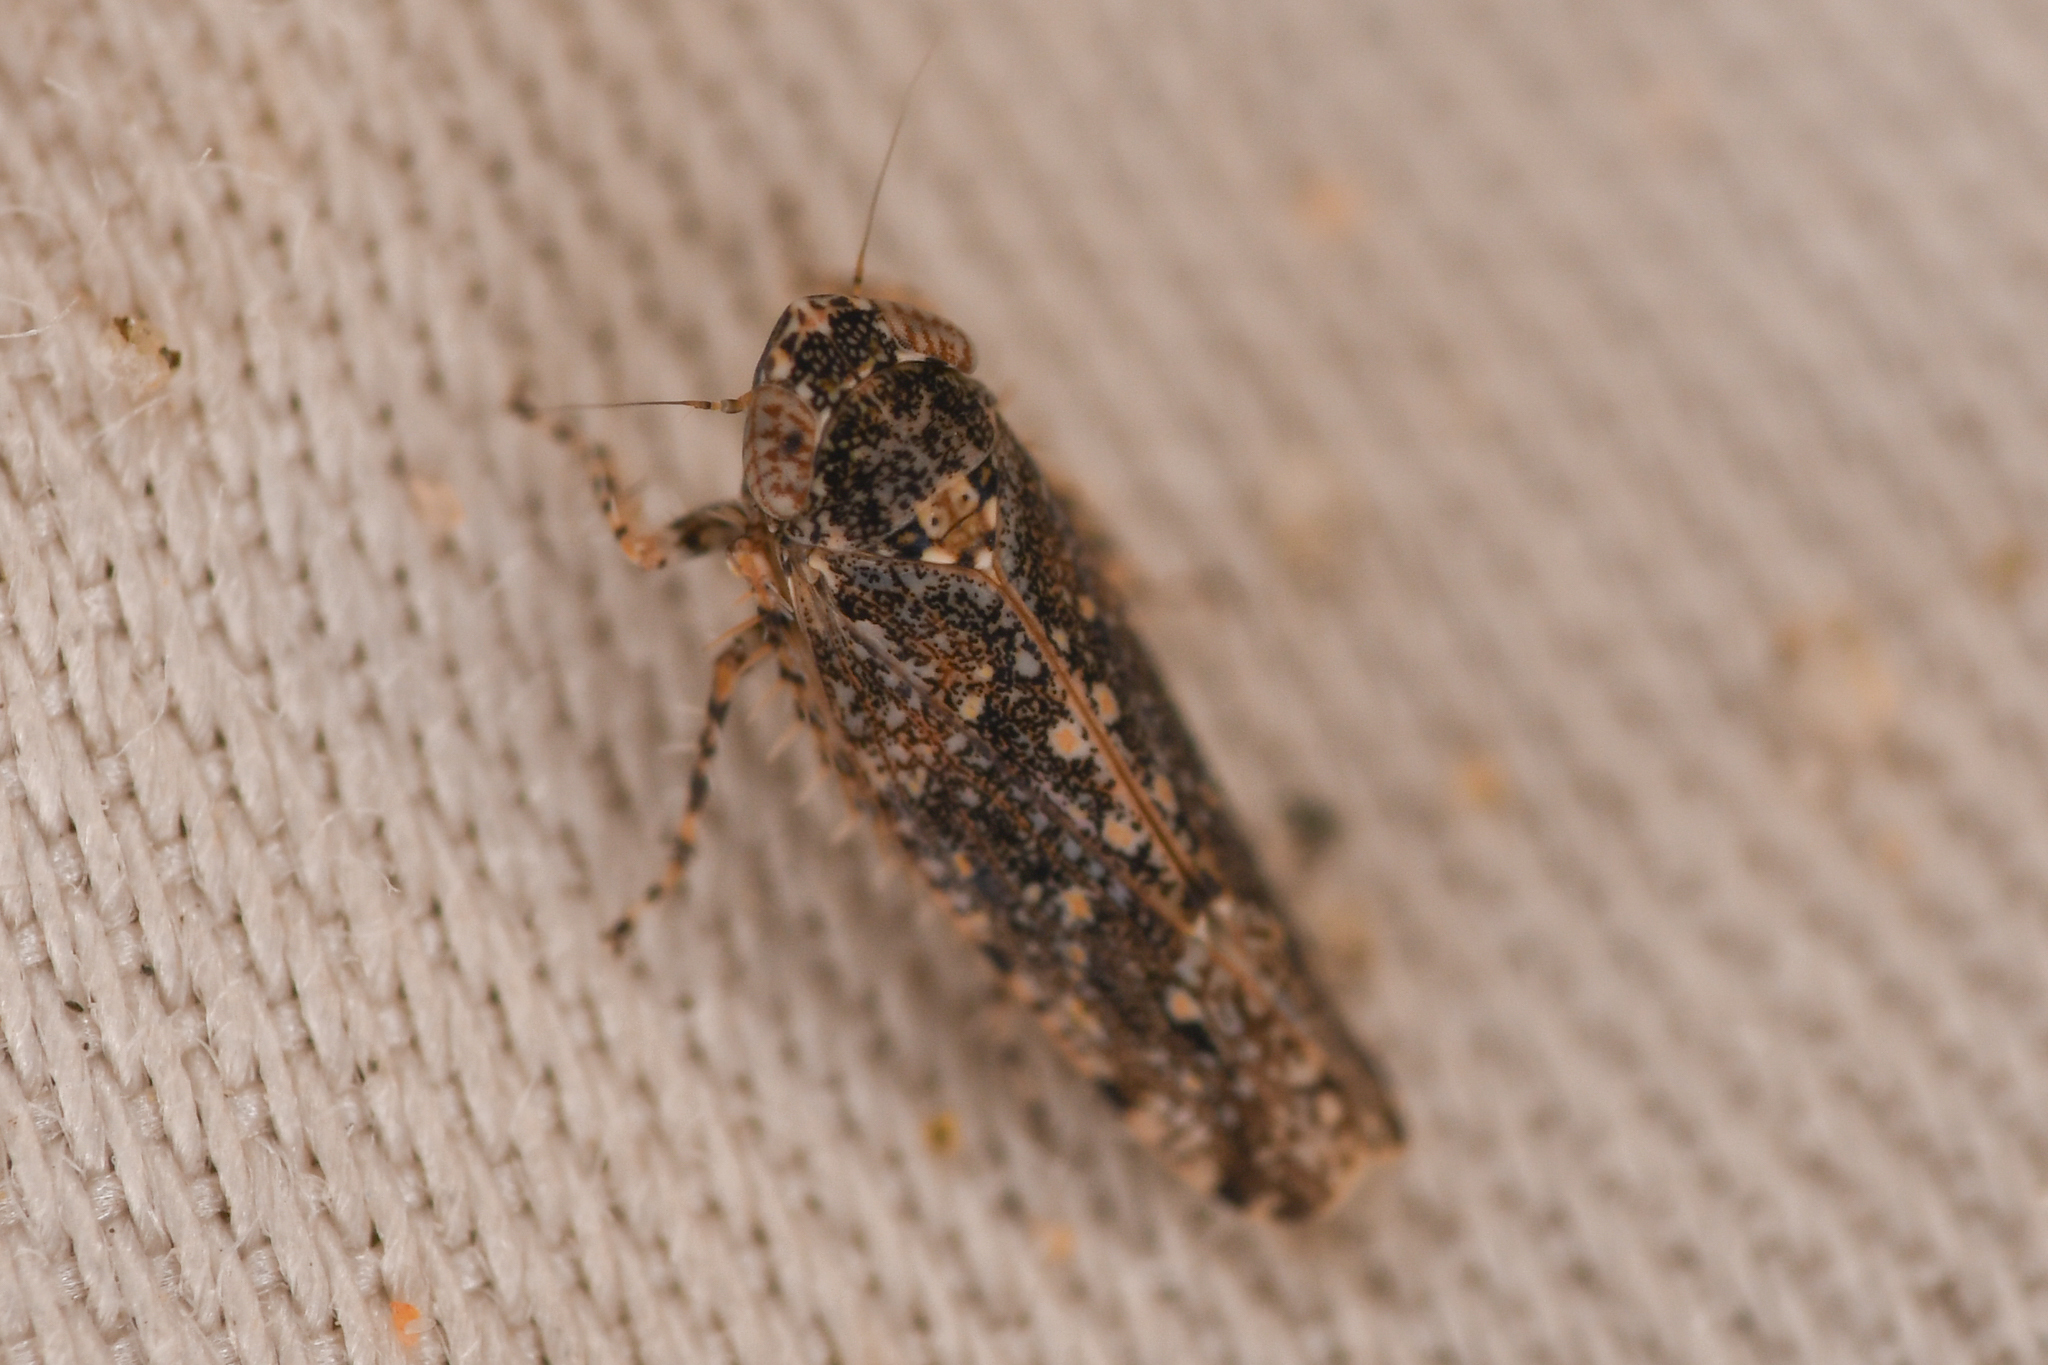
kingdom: Animalia
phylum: Arthropoda
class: Insecta
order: Hemiptera
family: Cicadellidae
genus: Dixianus
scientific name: Dixianus utahnus
